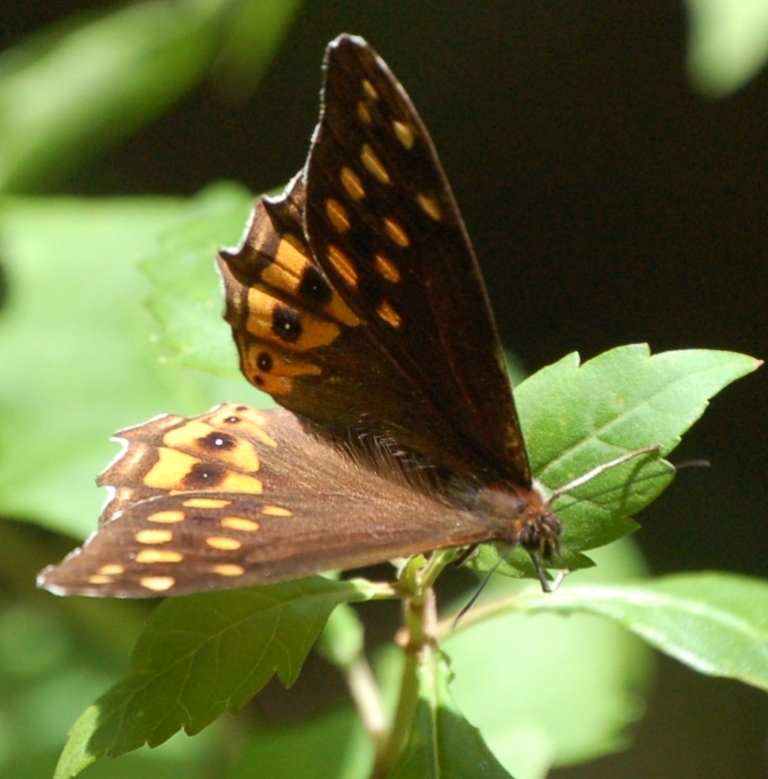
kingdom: Animalia
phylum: Arthropoda
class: Insecta
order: Lepidoptera
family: Nymphalidae
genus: Oxeoschistus
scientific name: Oxeoschistus hilara
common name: Dot-banded satyr
